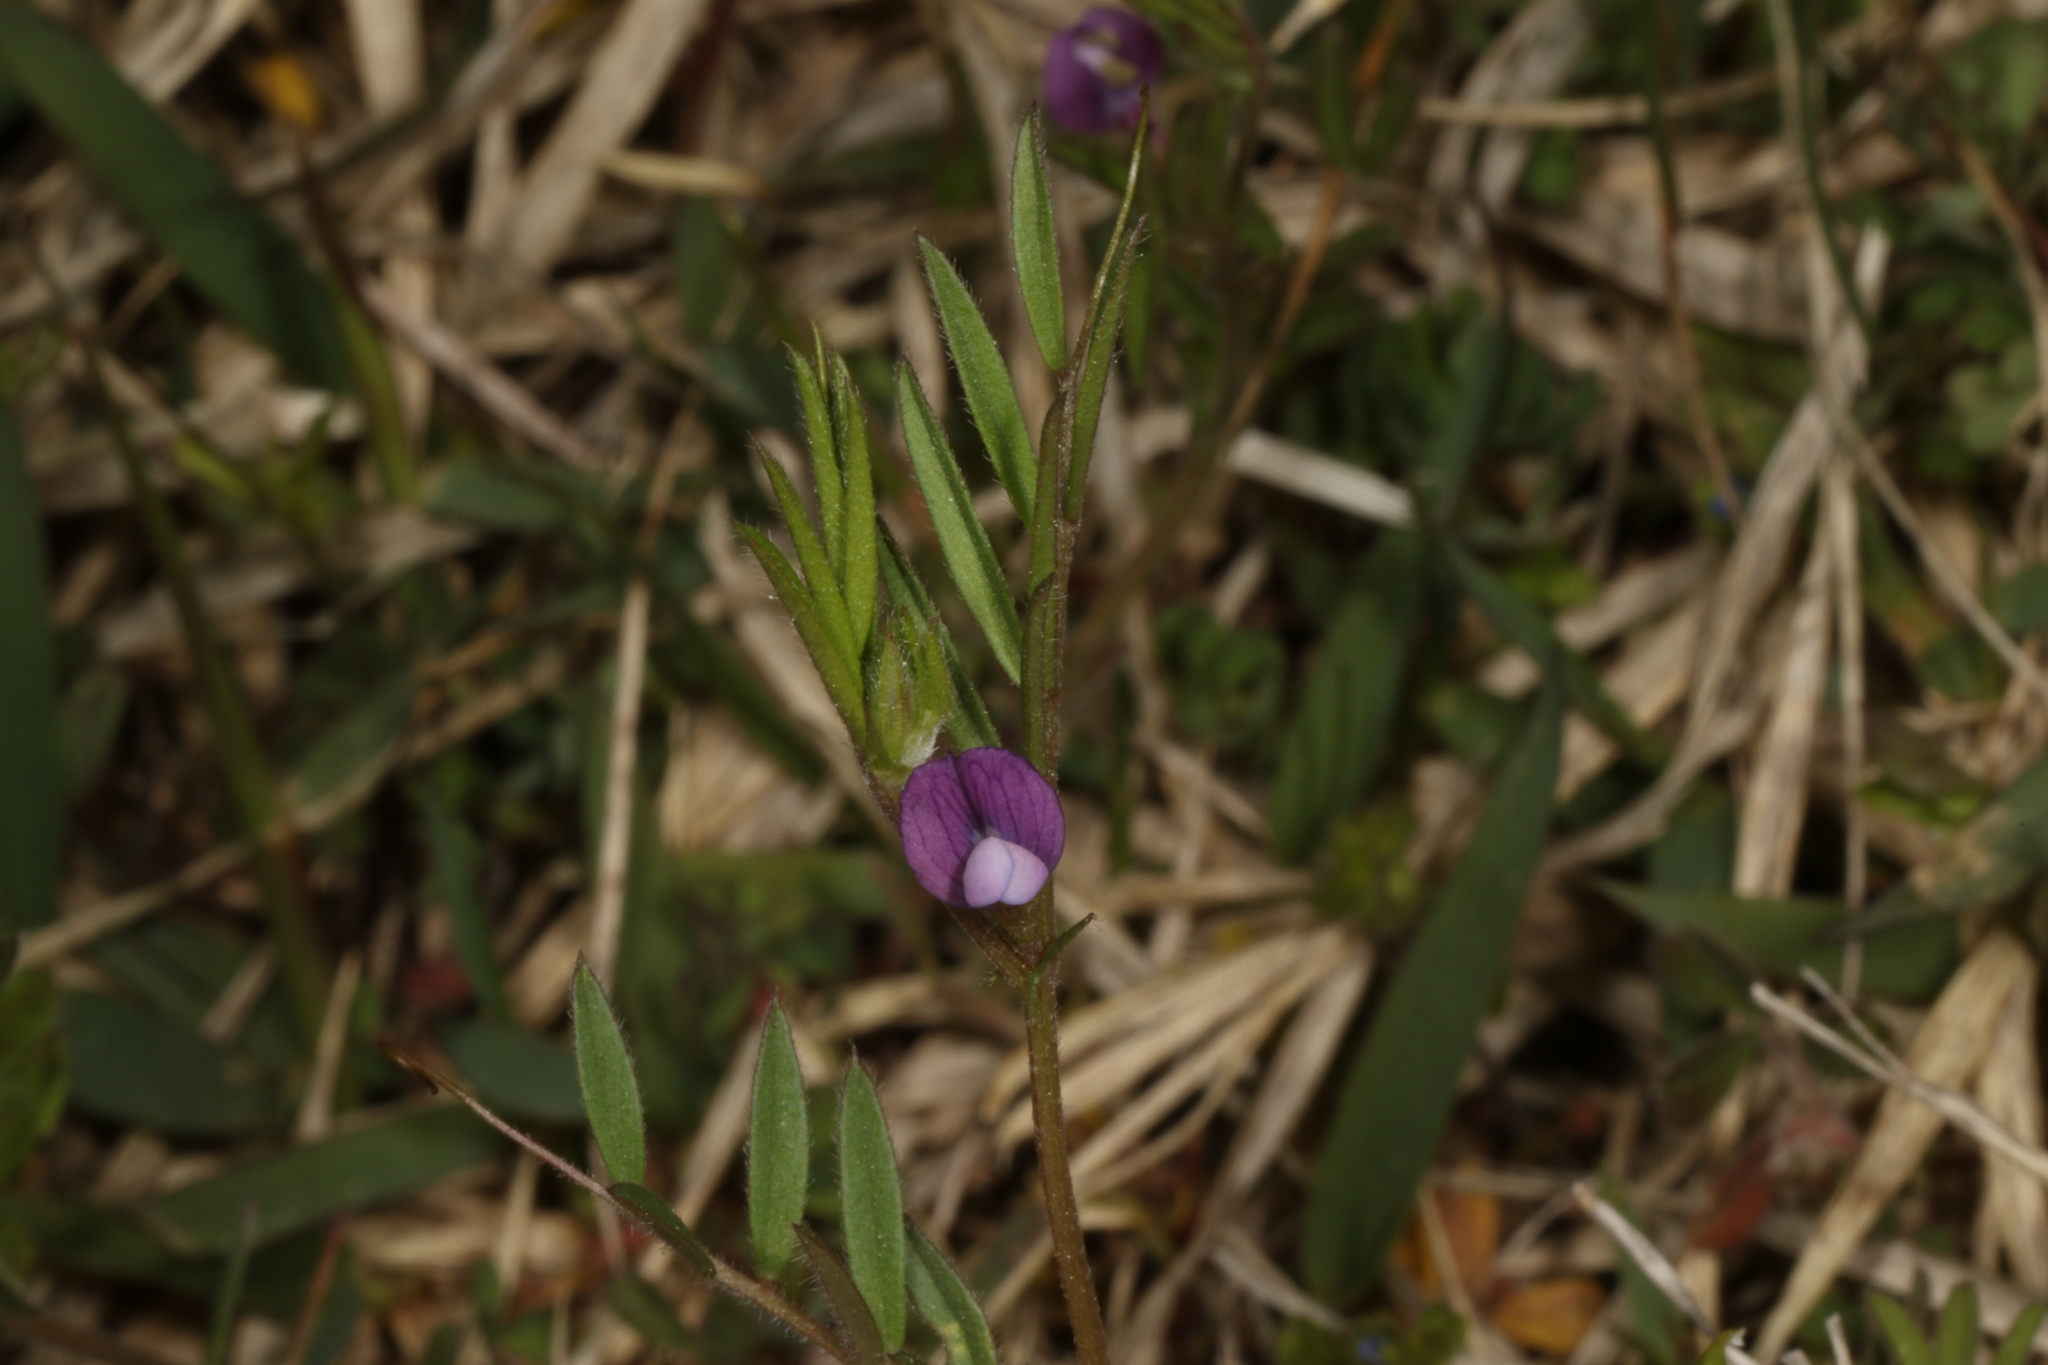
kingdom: Plantae
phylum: Tracheophyta
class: Magnoliopsida
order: Fabales
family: Fabaceae
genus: Vicia
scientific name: Vicia sativa
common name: Garden vetch
